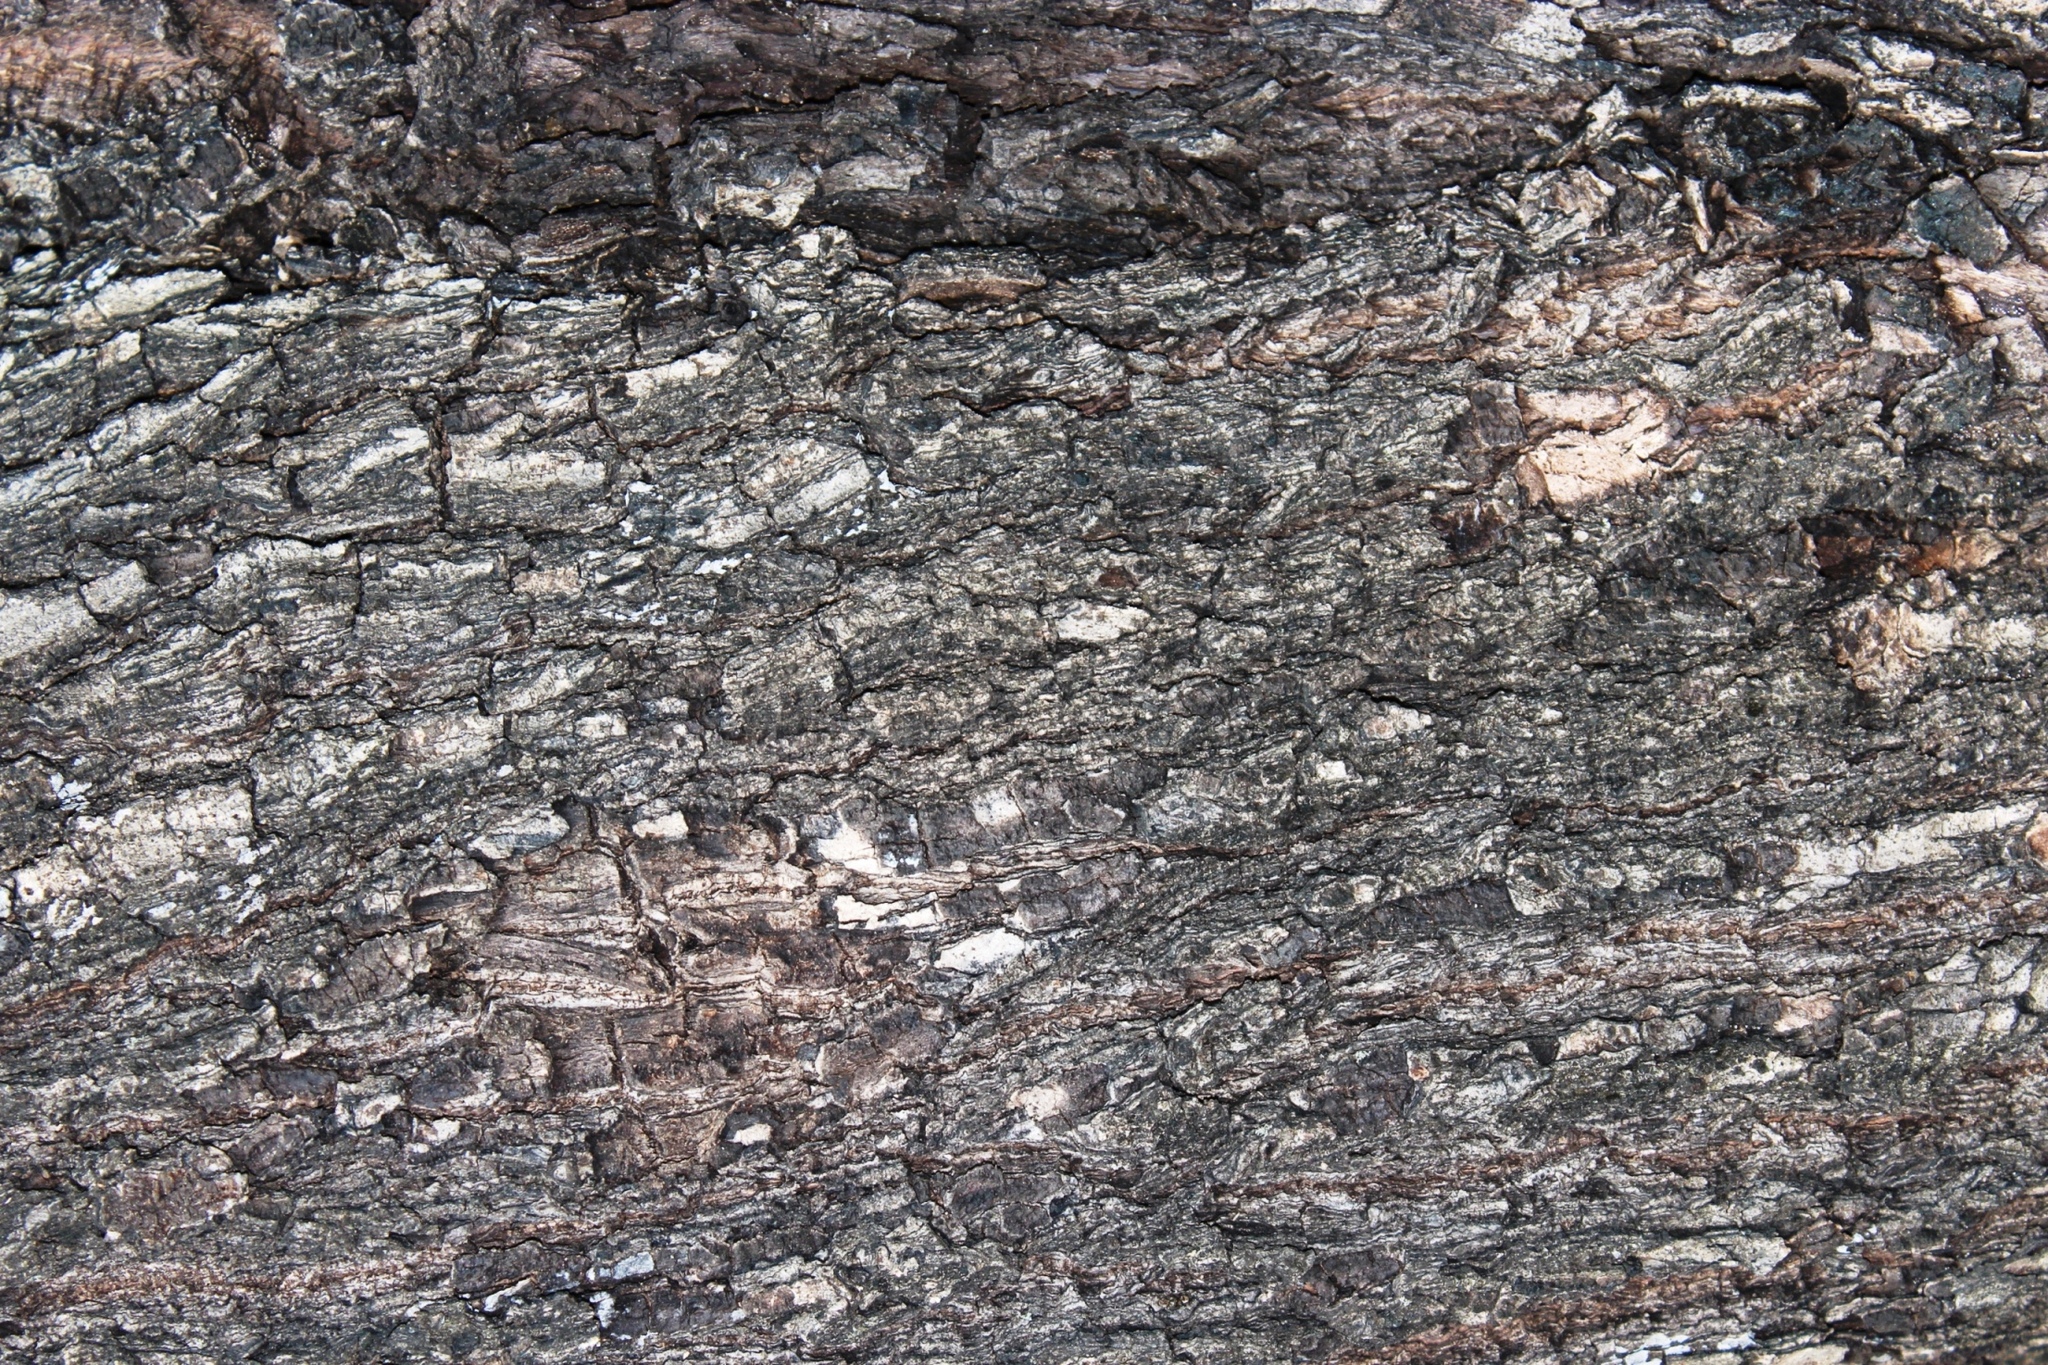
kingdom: Plantae
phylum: Tracheophyta
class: Magnoliopsida
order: Ericales
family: Ebenaceae
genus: Diospyros
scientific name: Diospyros mespiliformis
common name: Ebony diospyros
